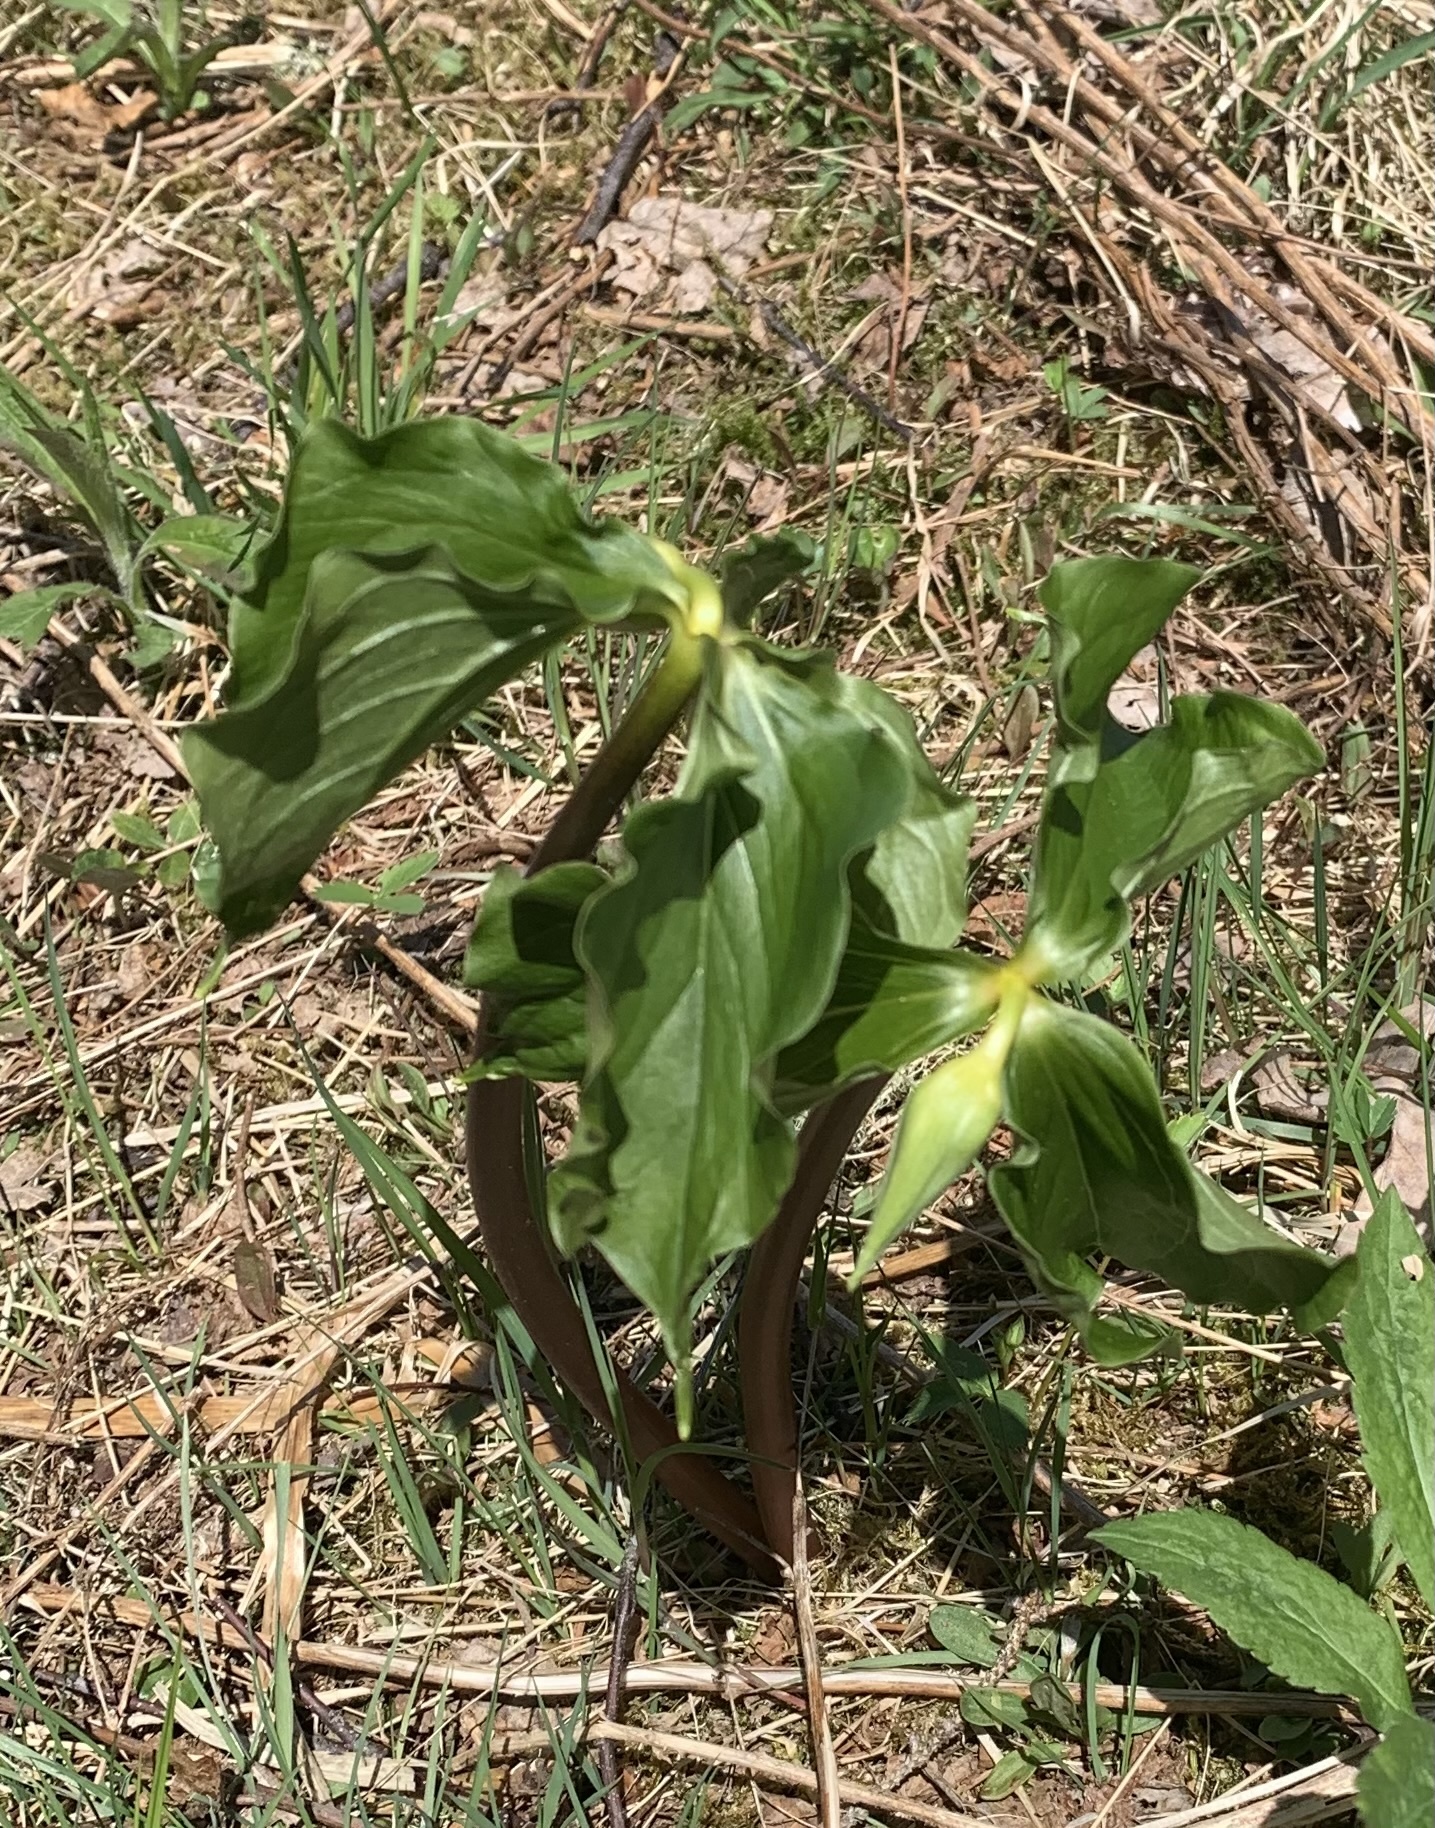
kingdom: Plantae
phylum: Tracheophyta
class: Liliopsida
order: Liliales
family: Melanthiaceae
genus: Trillium
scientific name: Trillium cernuum
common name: Nodding trillium
